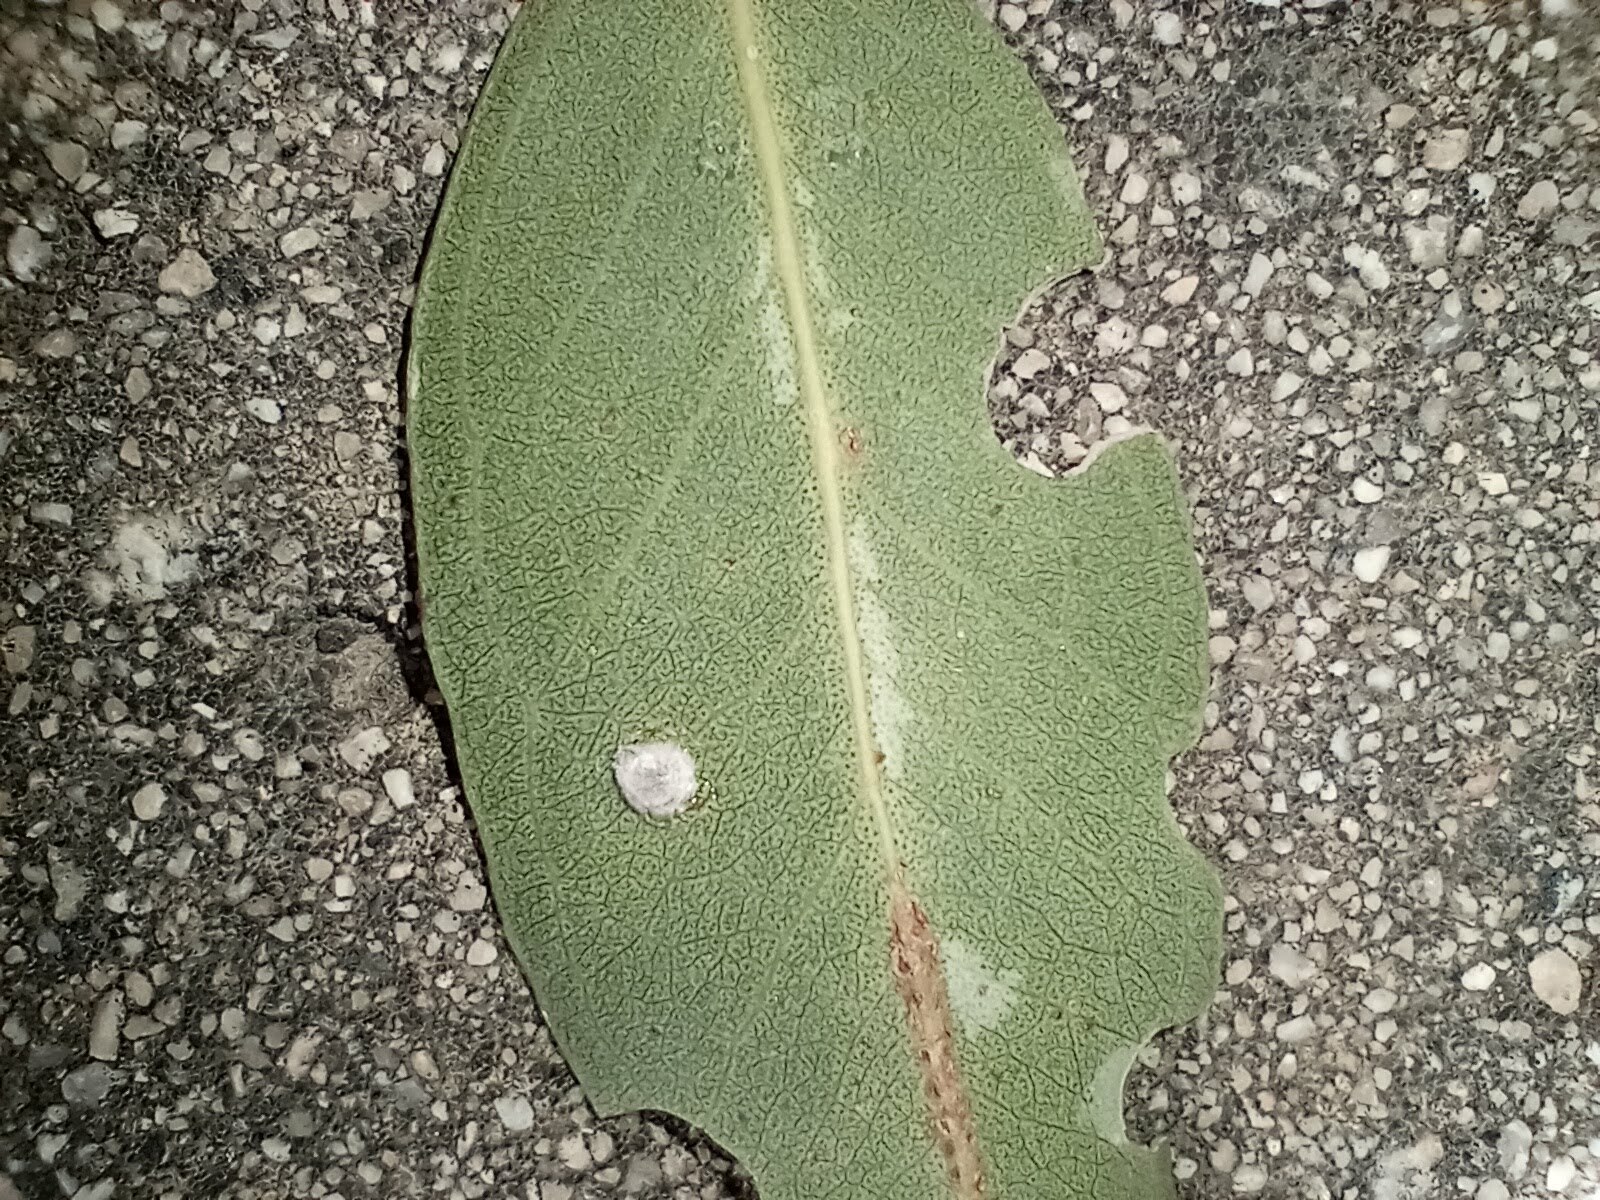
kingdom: Animalia
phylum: Arthropoda
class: Insecta
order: Hemiptera
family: Aphalaridae
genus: Glycaspis
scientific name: Glycaspis brimblecombei
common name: Red gum lerp psyllid
